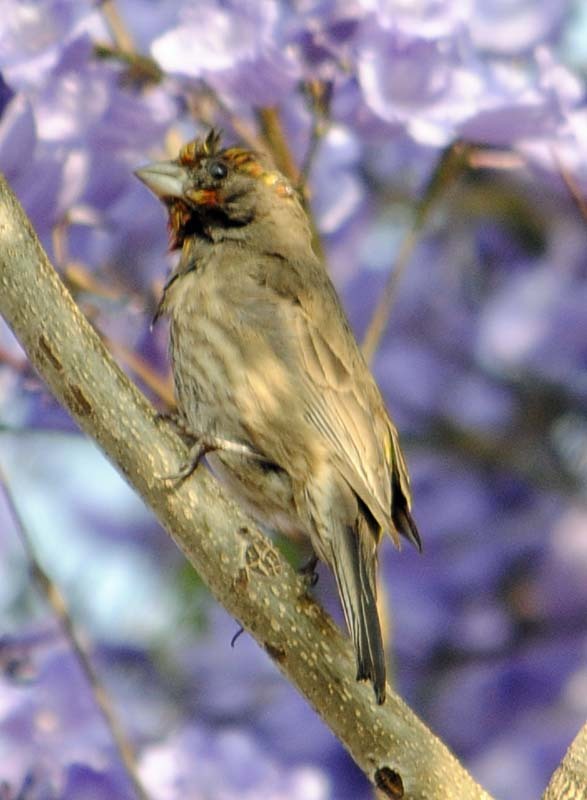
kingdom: Animalia
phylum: Chordata
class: Aves
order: Passeriformes
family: Fringillidae
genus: Haemorhous
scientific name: Haemorhous mexicanus
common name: House finch
